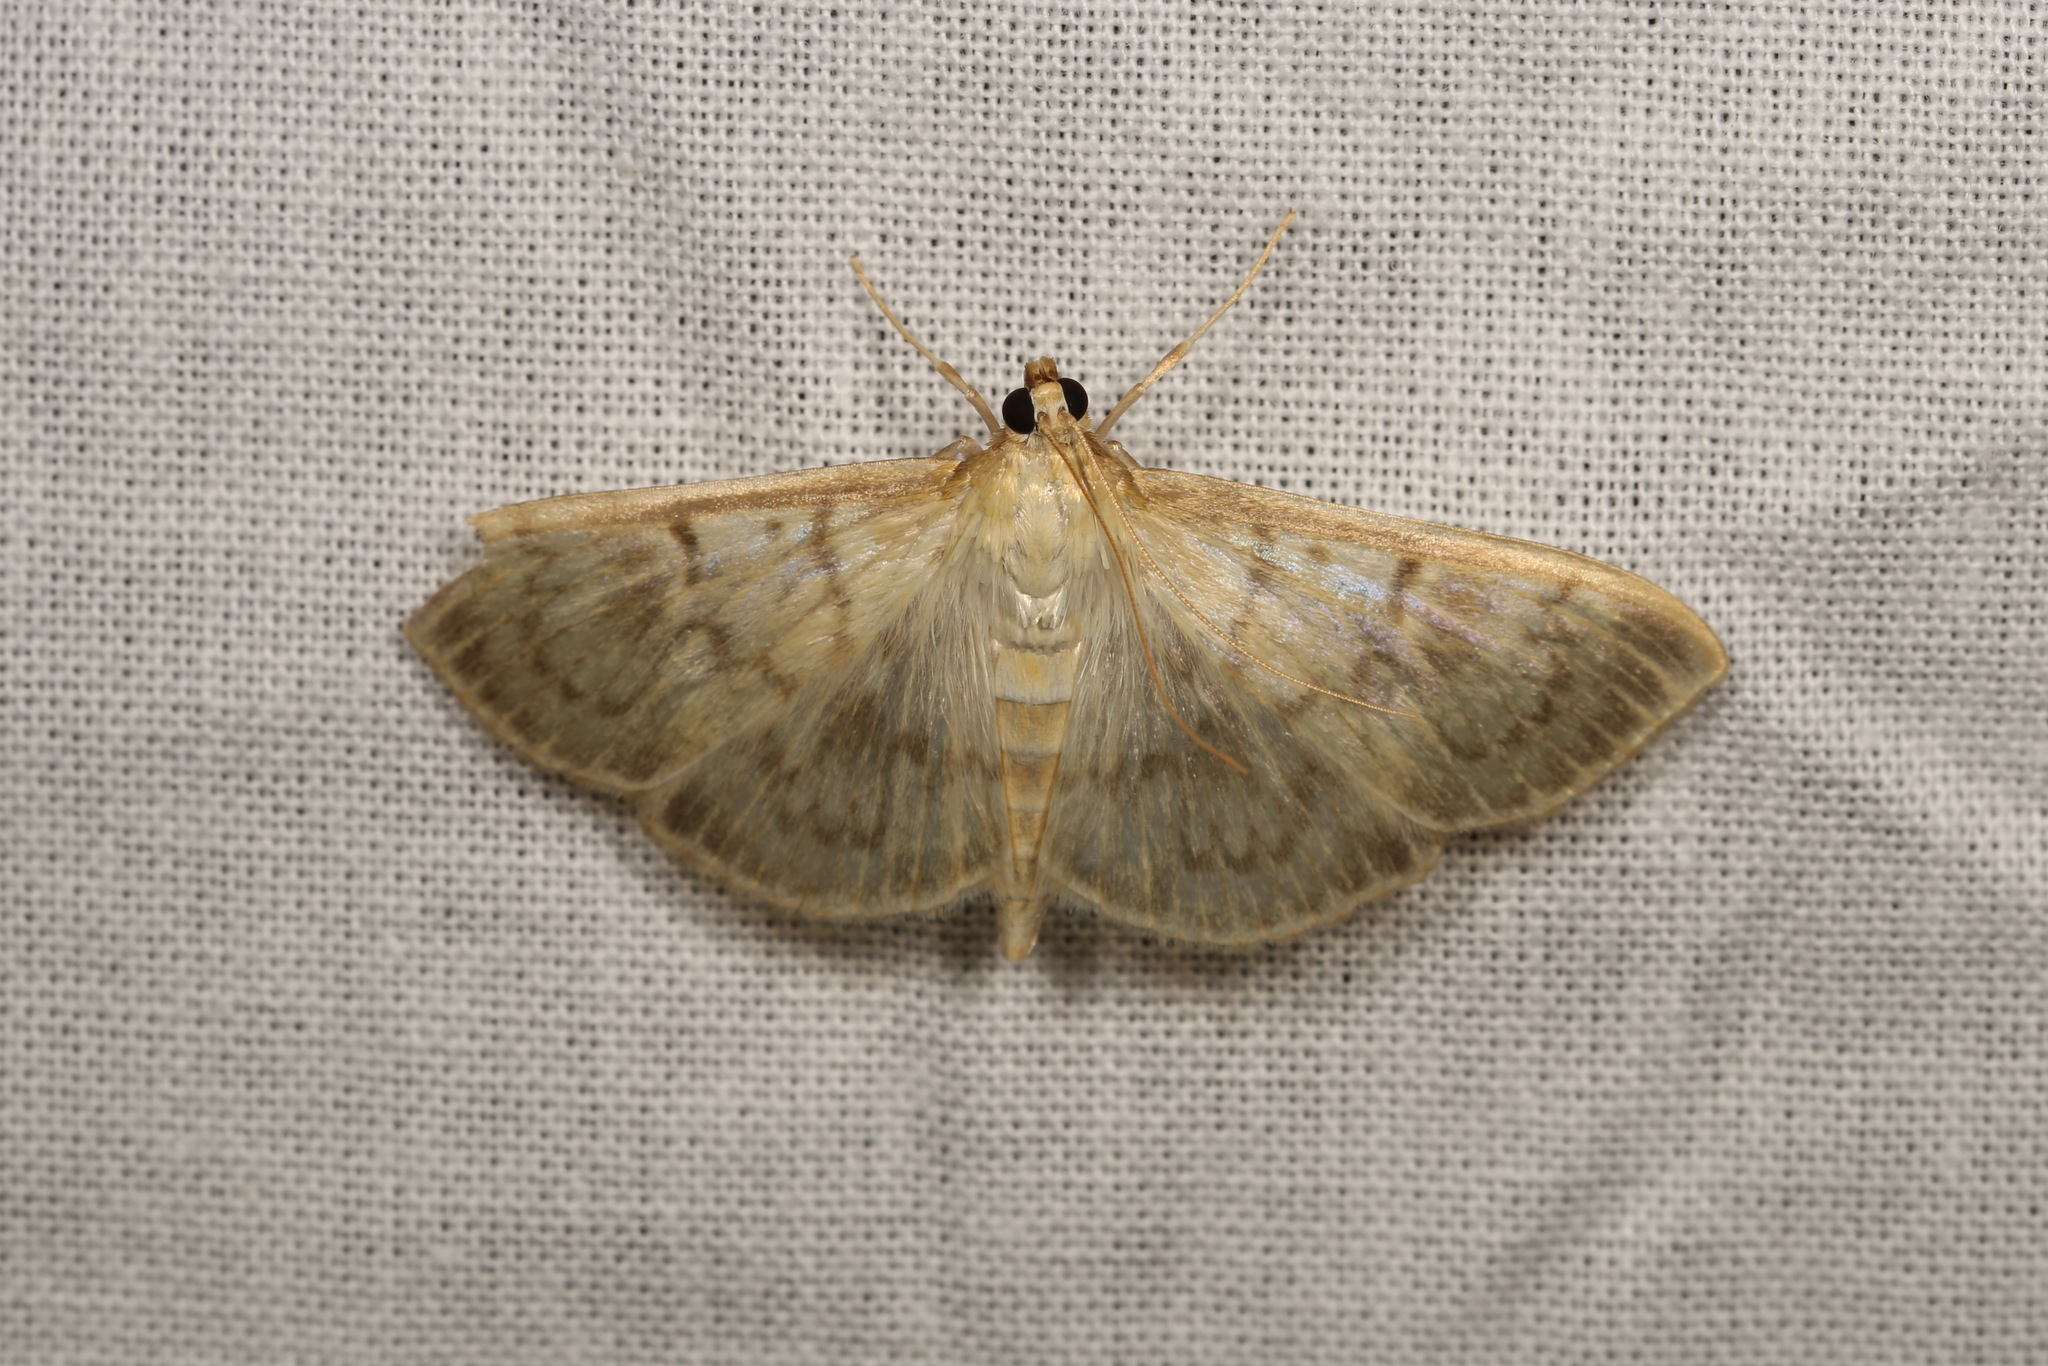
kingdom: Animalia
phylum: Arthropoda
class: Insecta
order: Lepidoptera
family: Crambidae
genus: Patania
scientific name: Patania ruralis
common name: Mother of pearl
